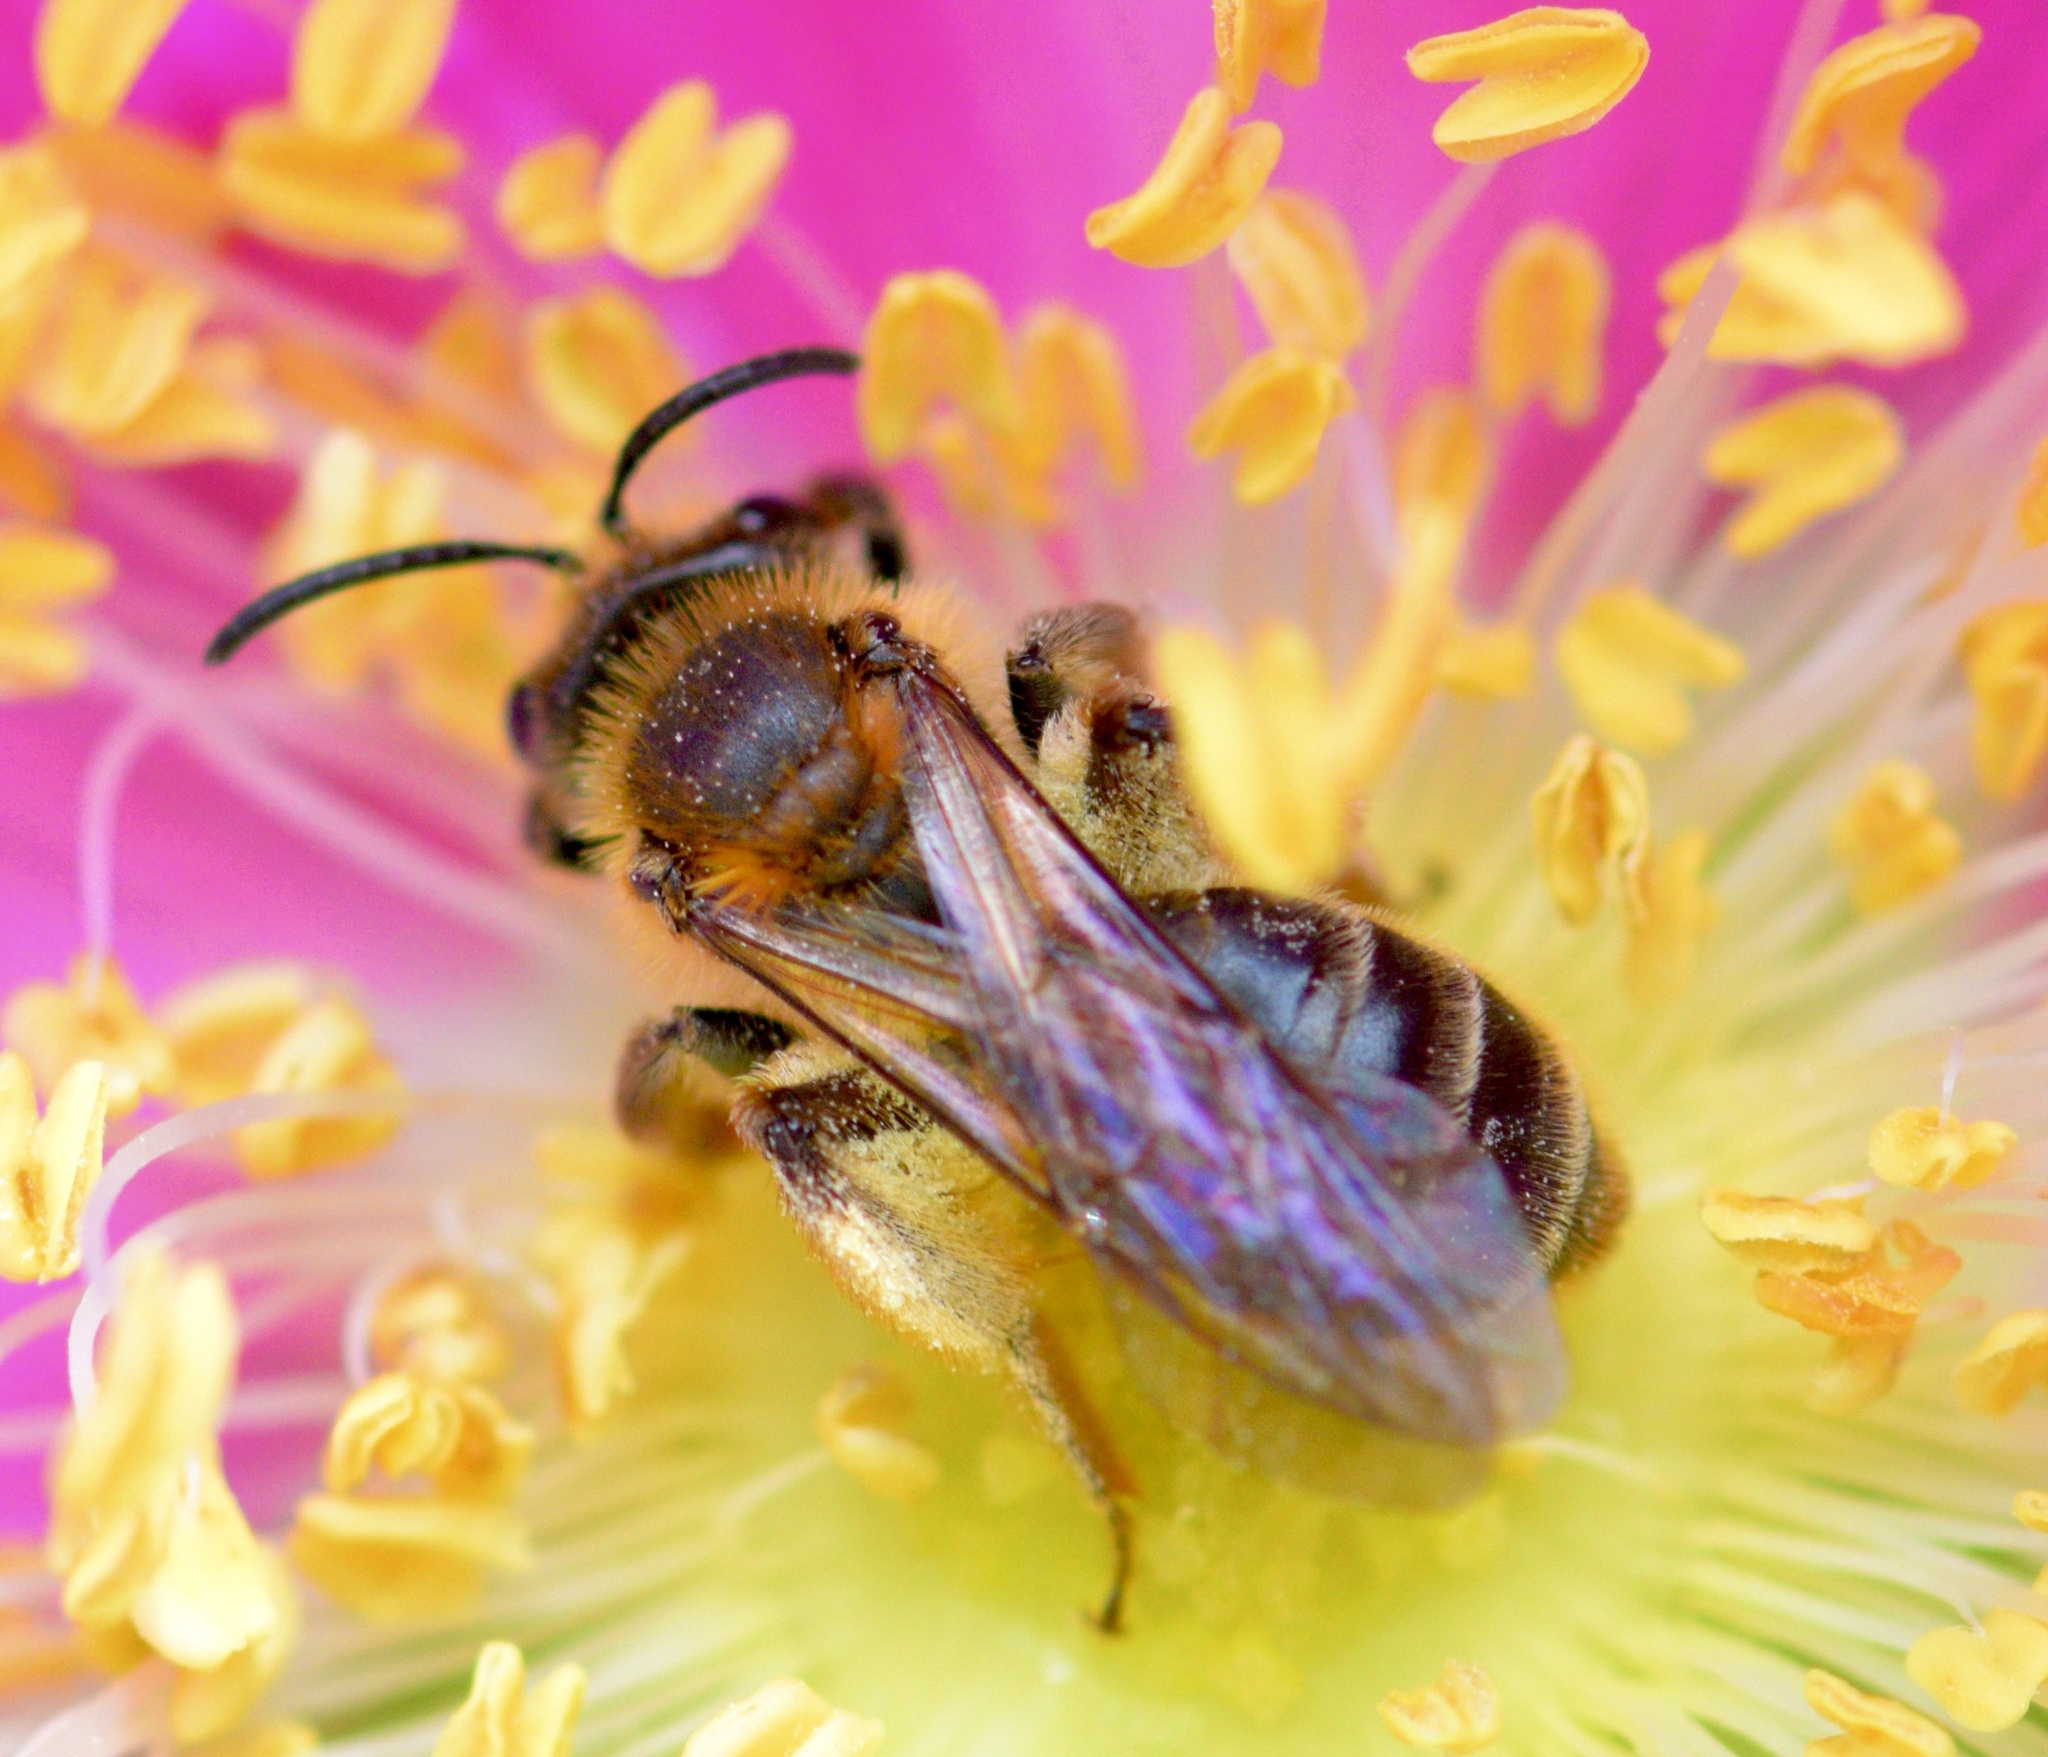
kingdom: Animalia
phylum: Arthropoda
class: Insecta
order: Hymenoptera
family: Andrenidae
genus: Andrena
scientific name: Andrena thaspii
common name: Parsnip miner bee
